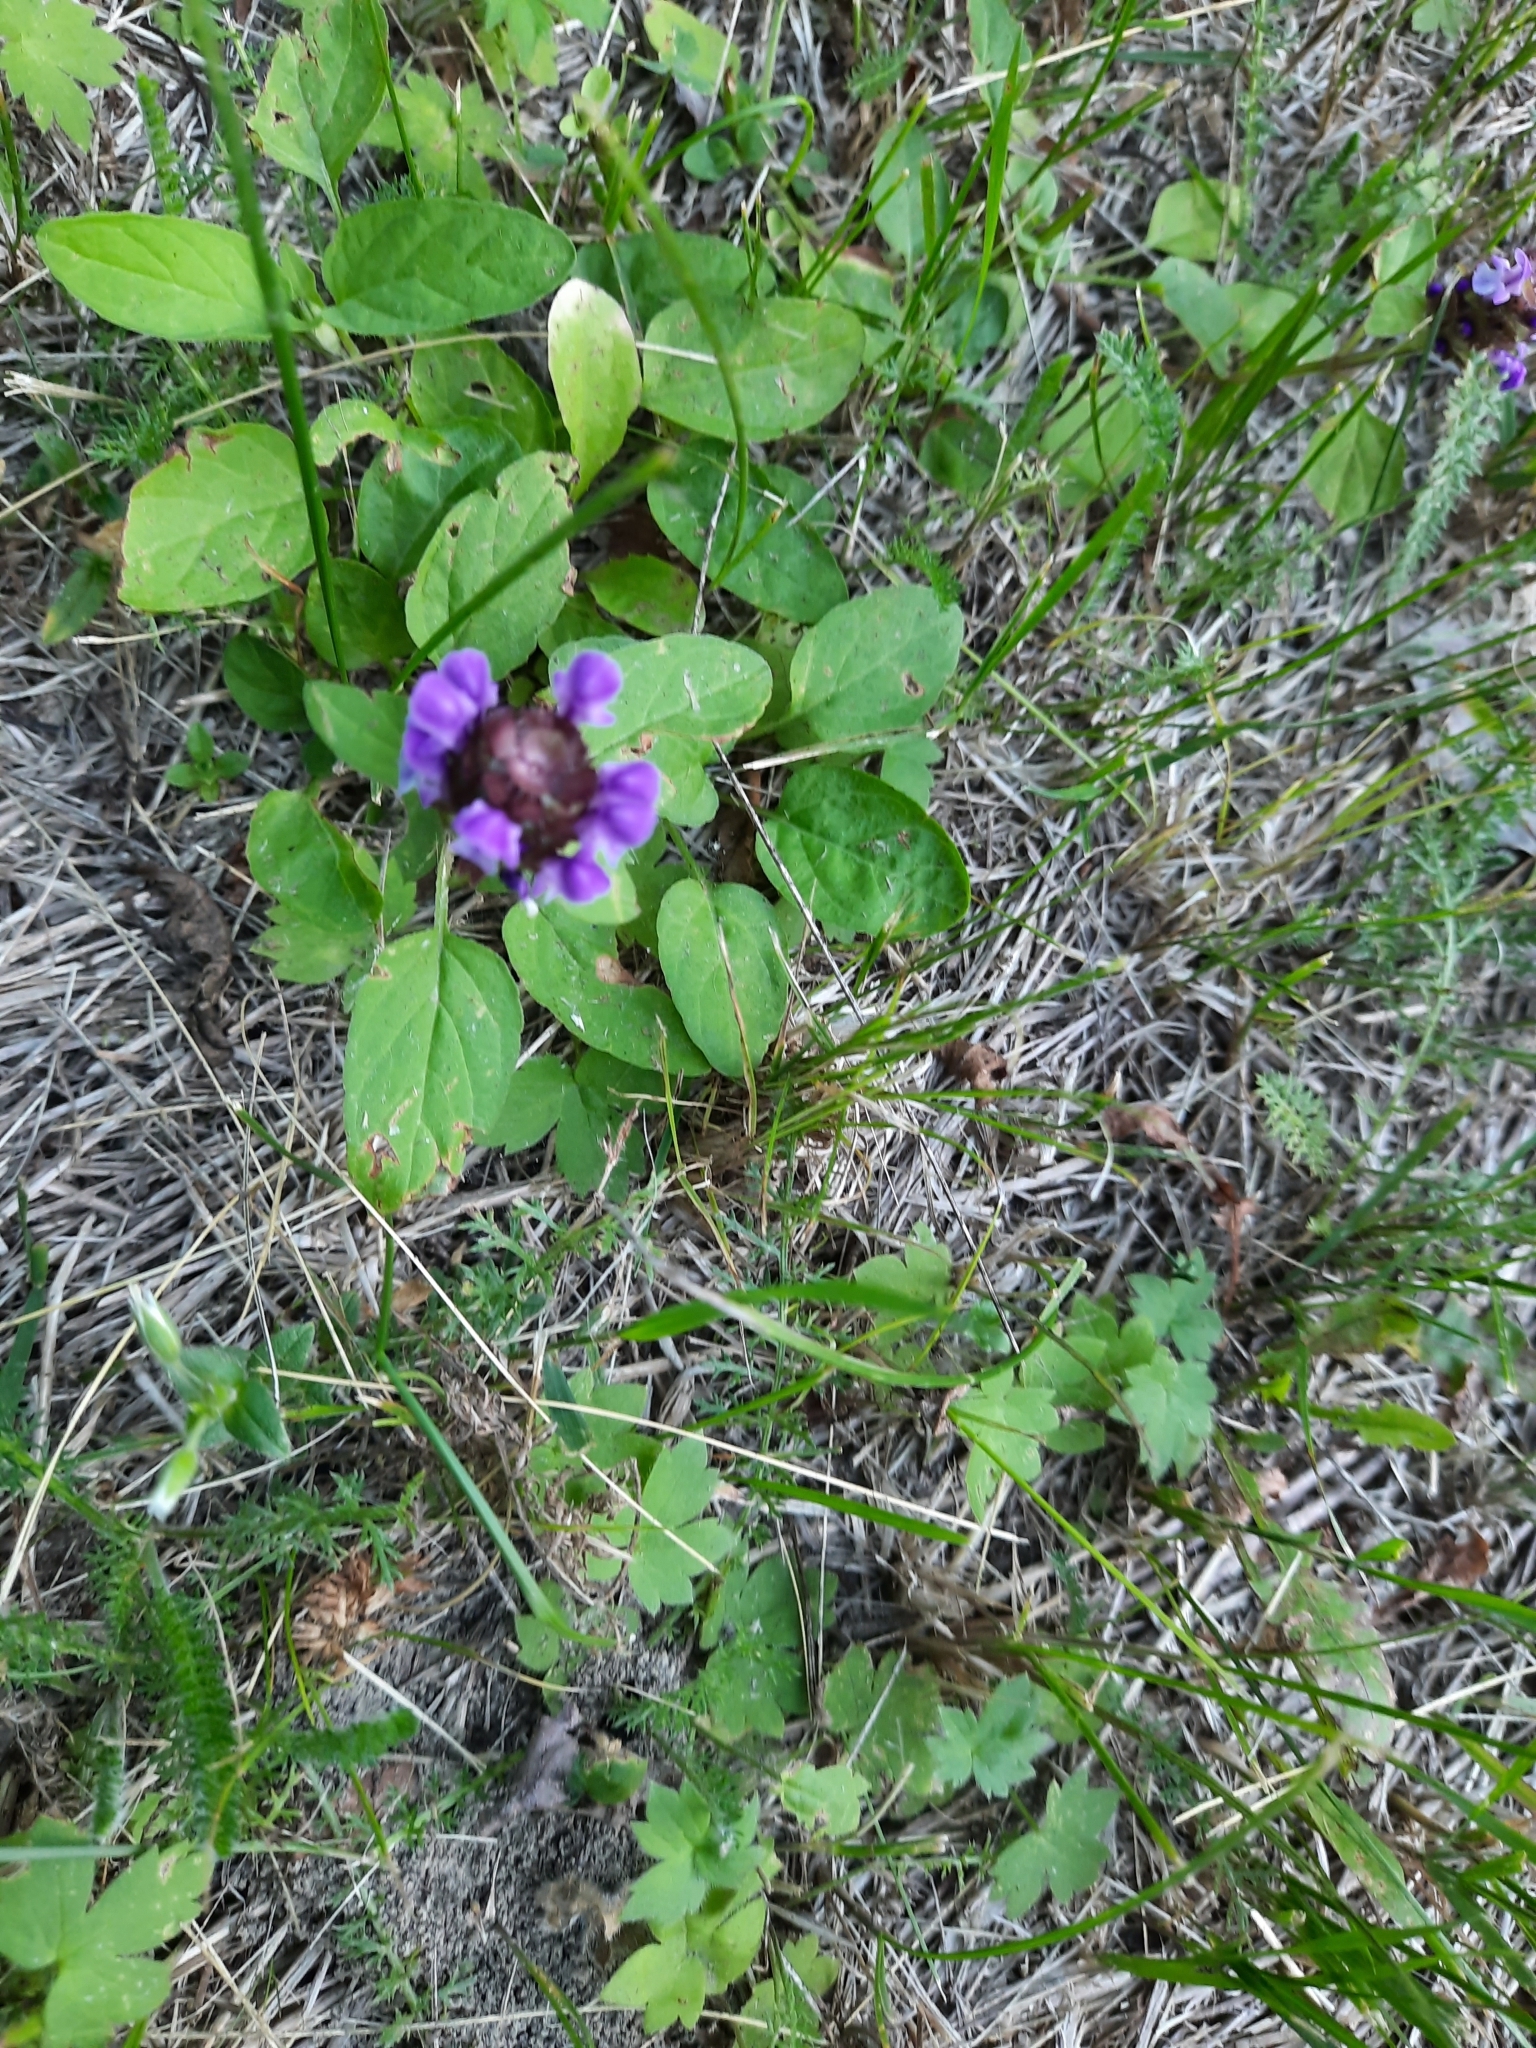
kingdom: Plantae
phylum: Tracheophyta
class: Magnoliopsida
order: Lamiales
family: Lamiaceae
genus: Prunella
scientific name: Prunella vulgaris
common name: Heal-all
